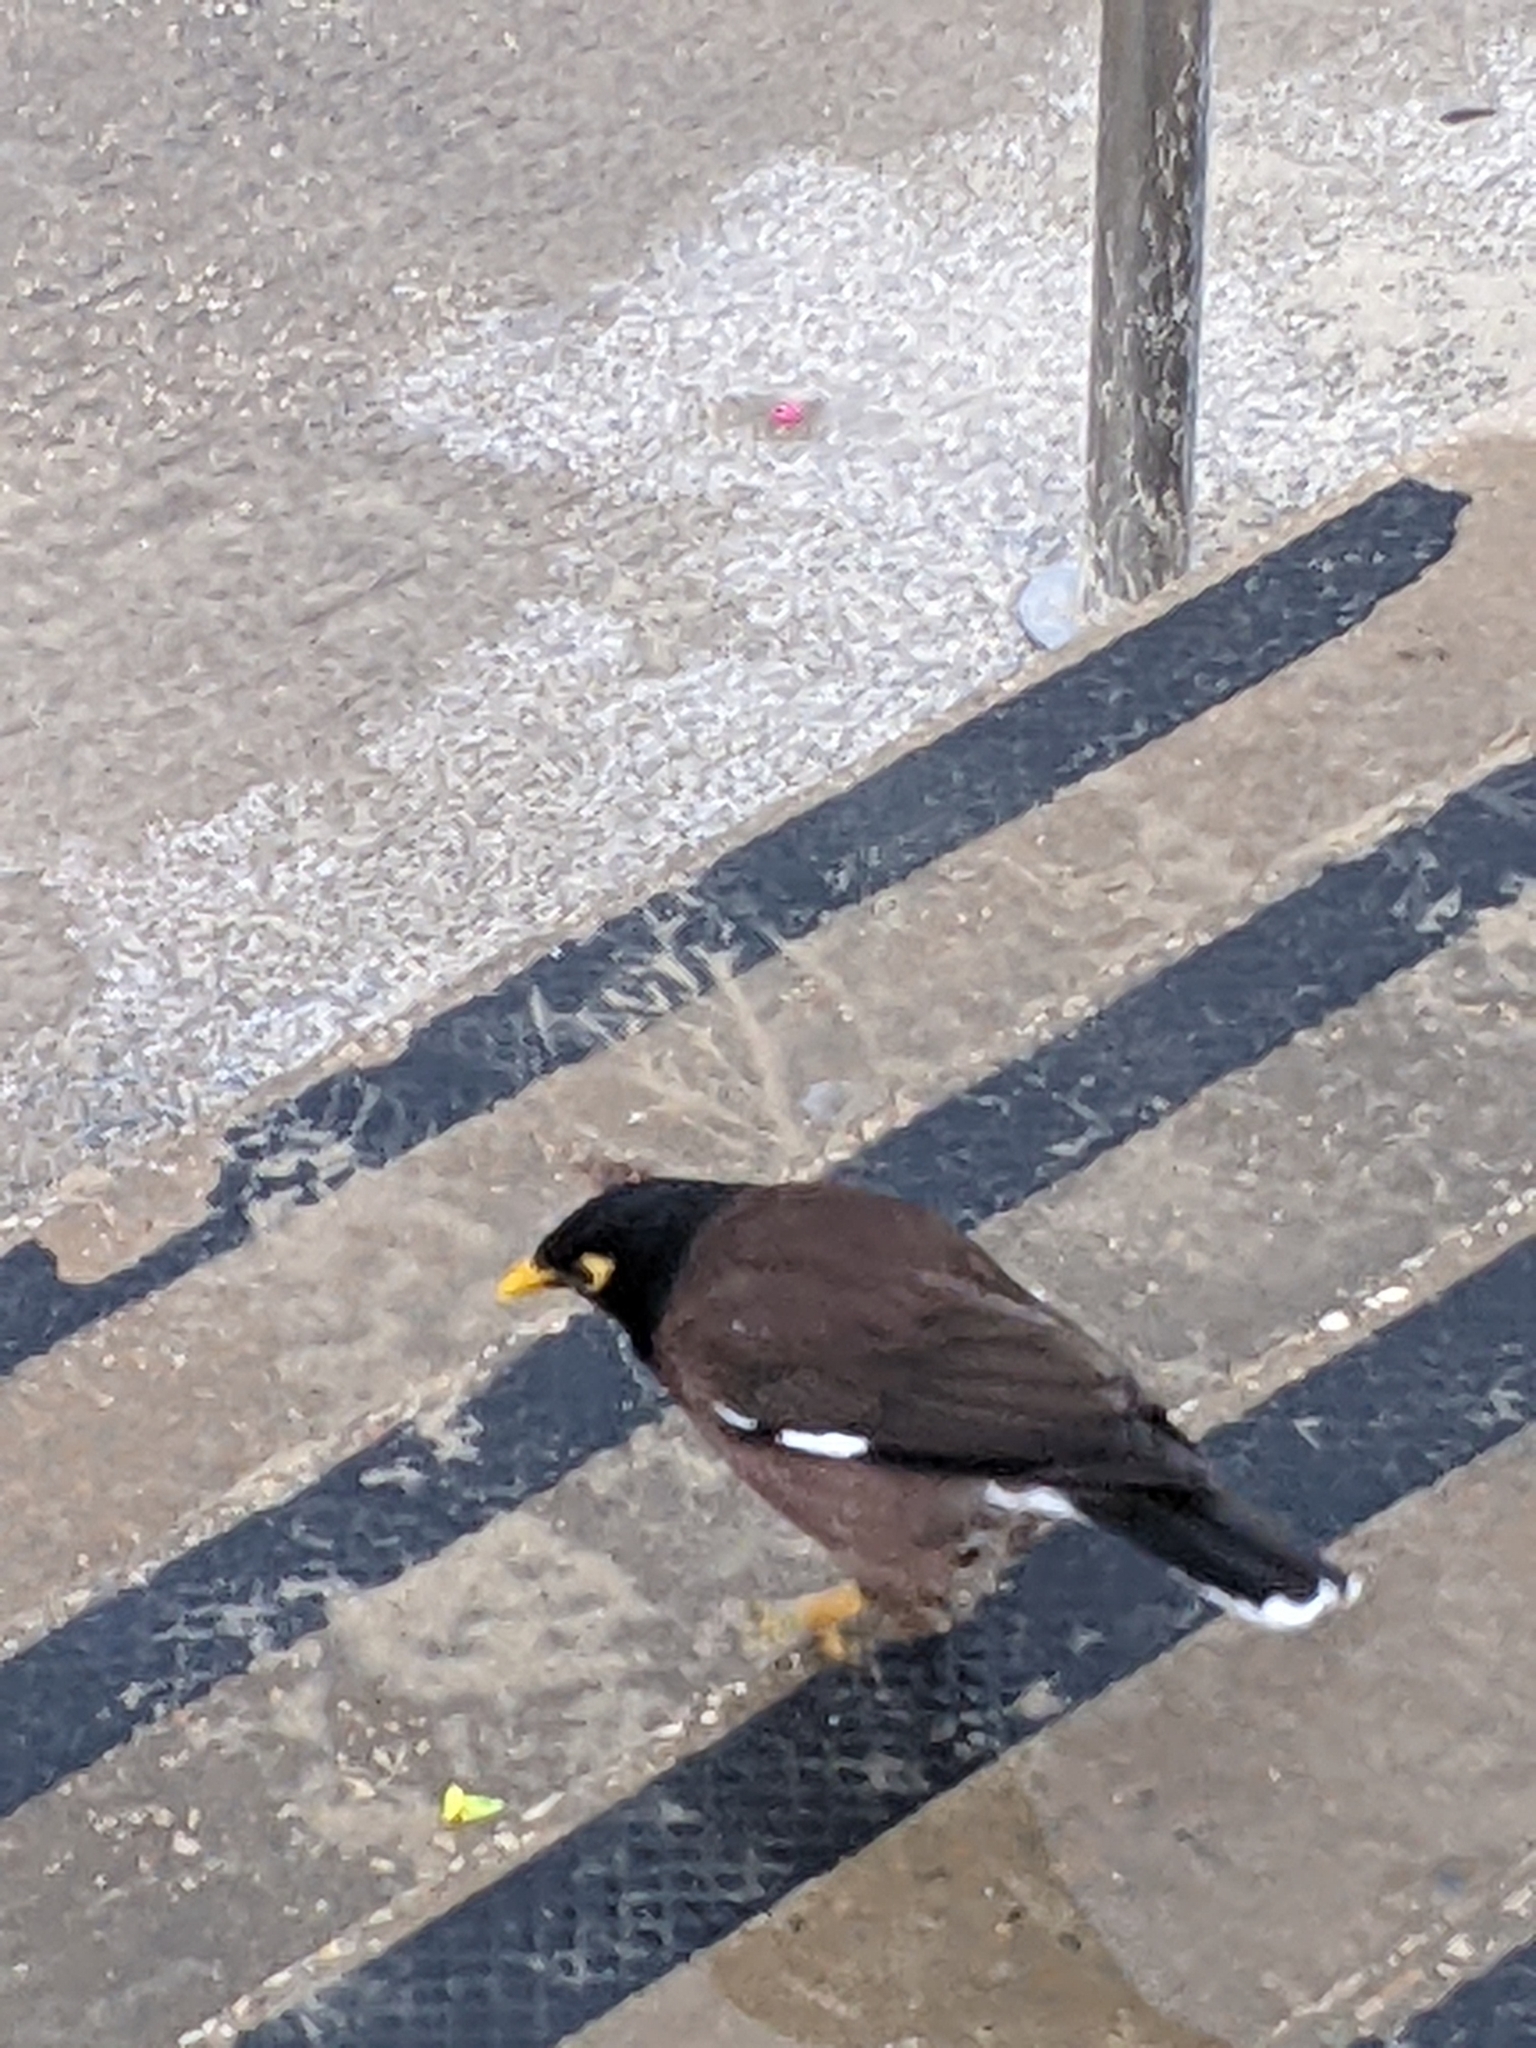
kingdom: Animalia
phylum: Chordata
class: Aves
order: Passeriformes
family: Sturnidae
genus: Acridotheres
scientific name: Acridotheres tristis
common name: Common myna
